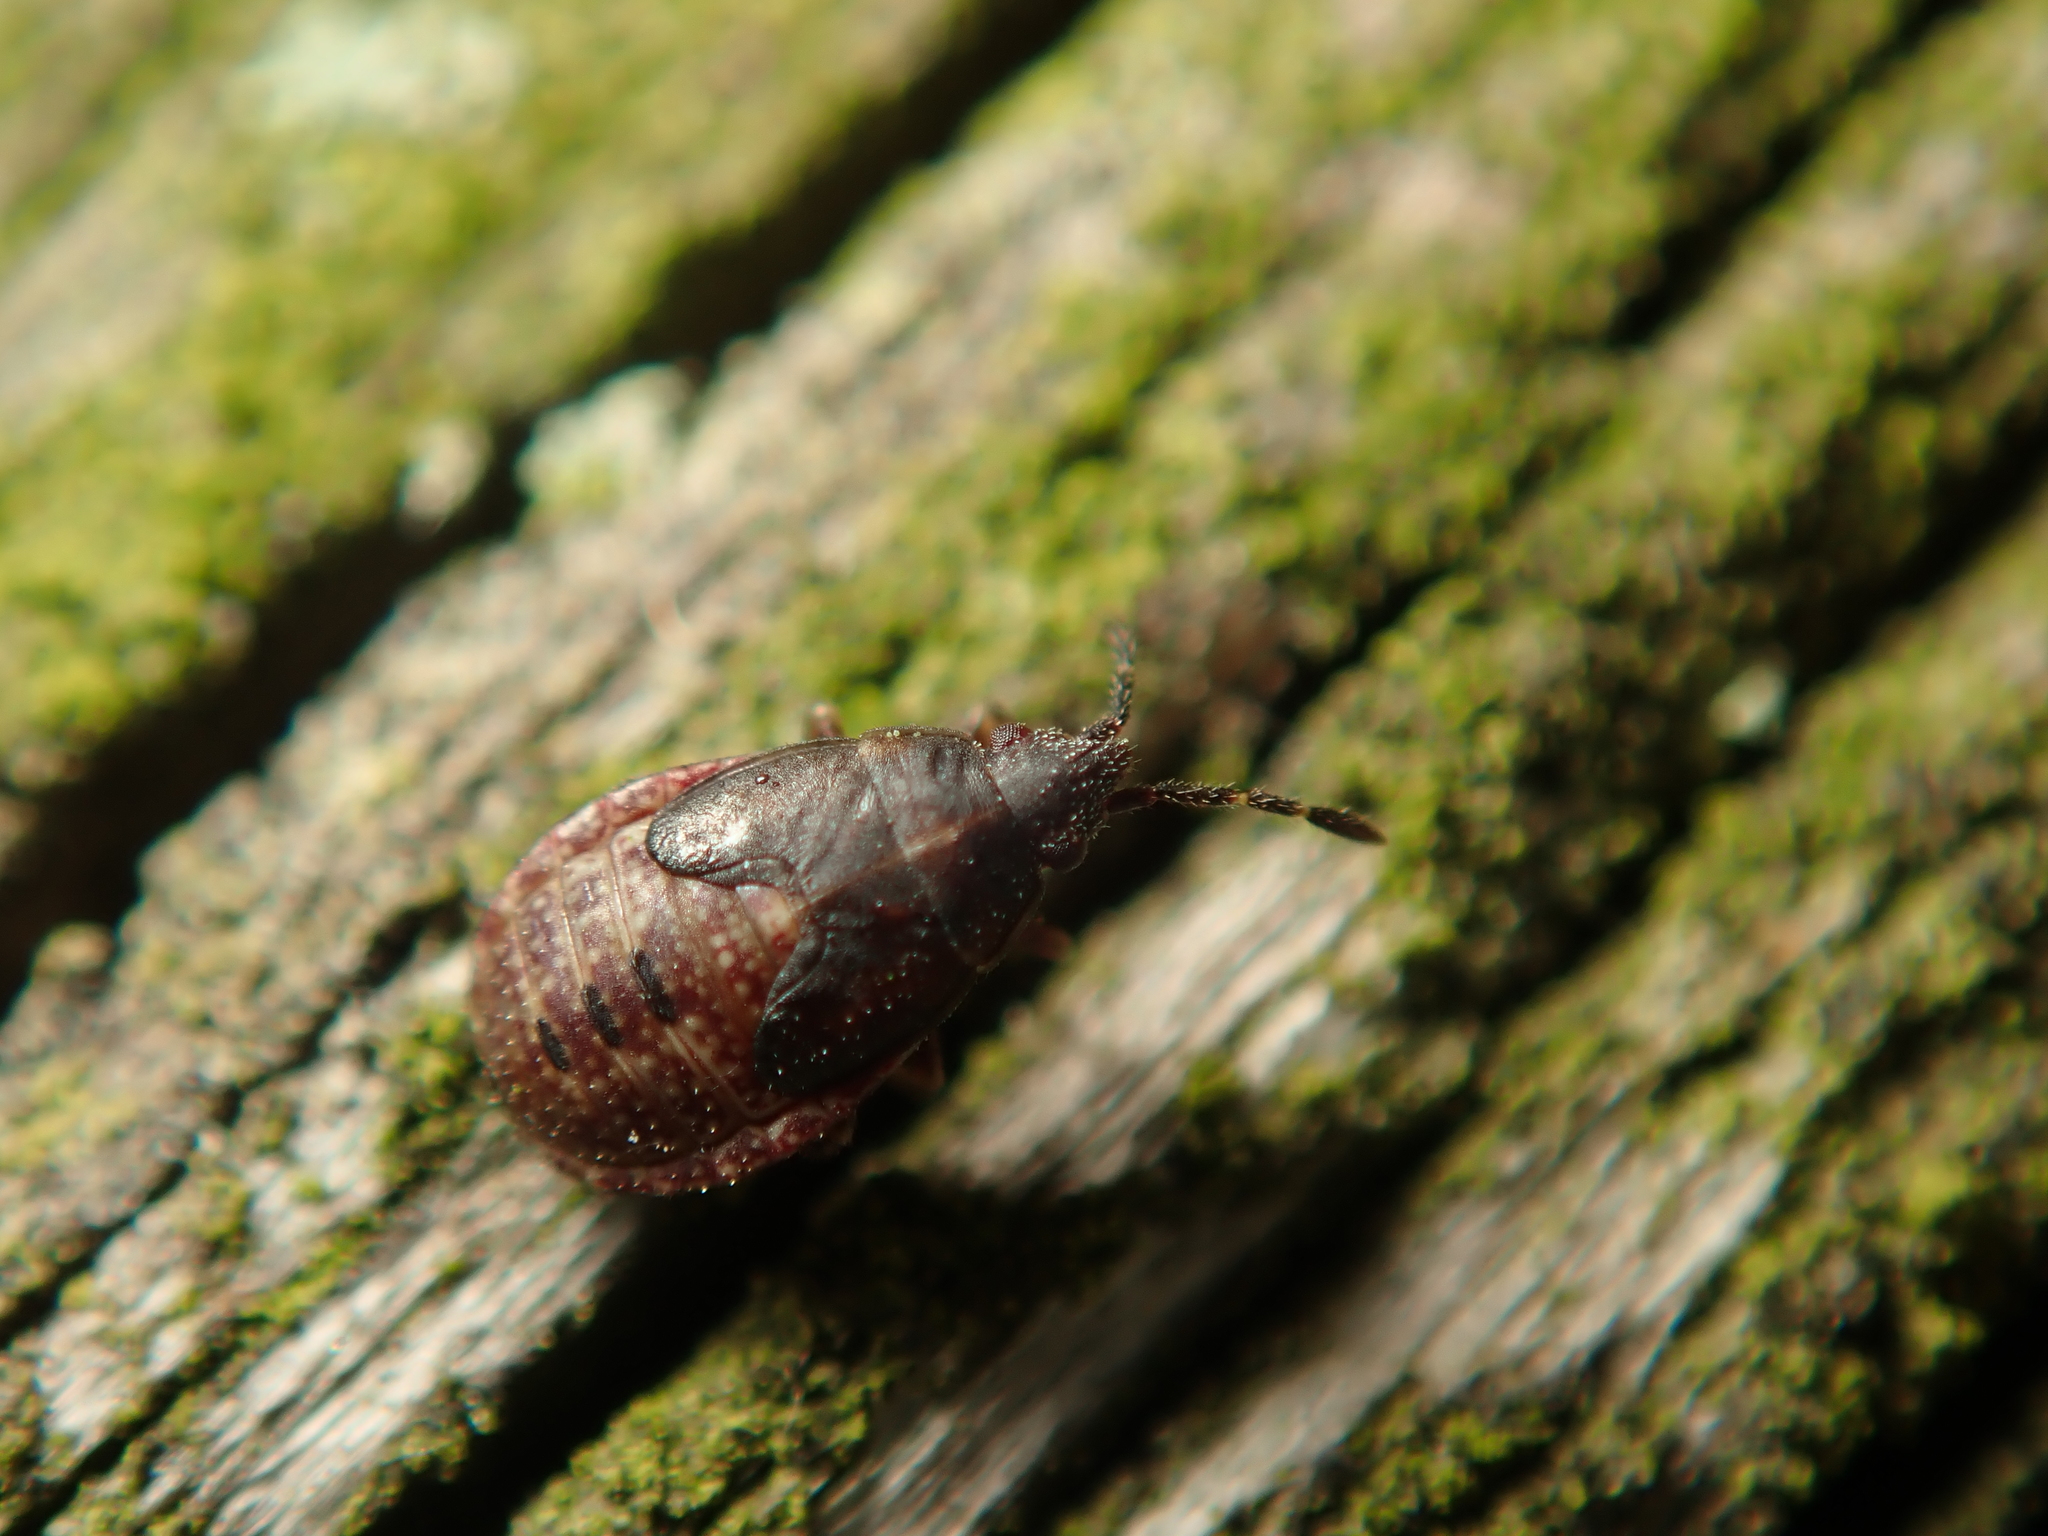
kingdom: Animalia
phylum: Arthropoda
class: Insecta
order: Hemiptera
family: Lygaeidae
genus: Kleidocerys
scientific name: Kleidocerys resedae
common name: Birch catkin bug
